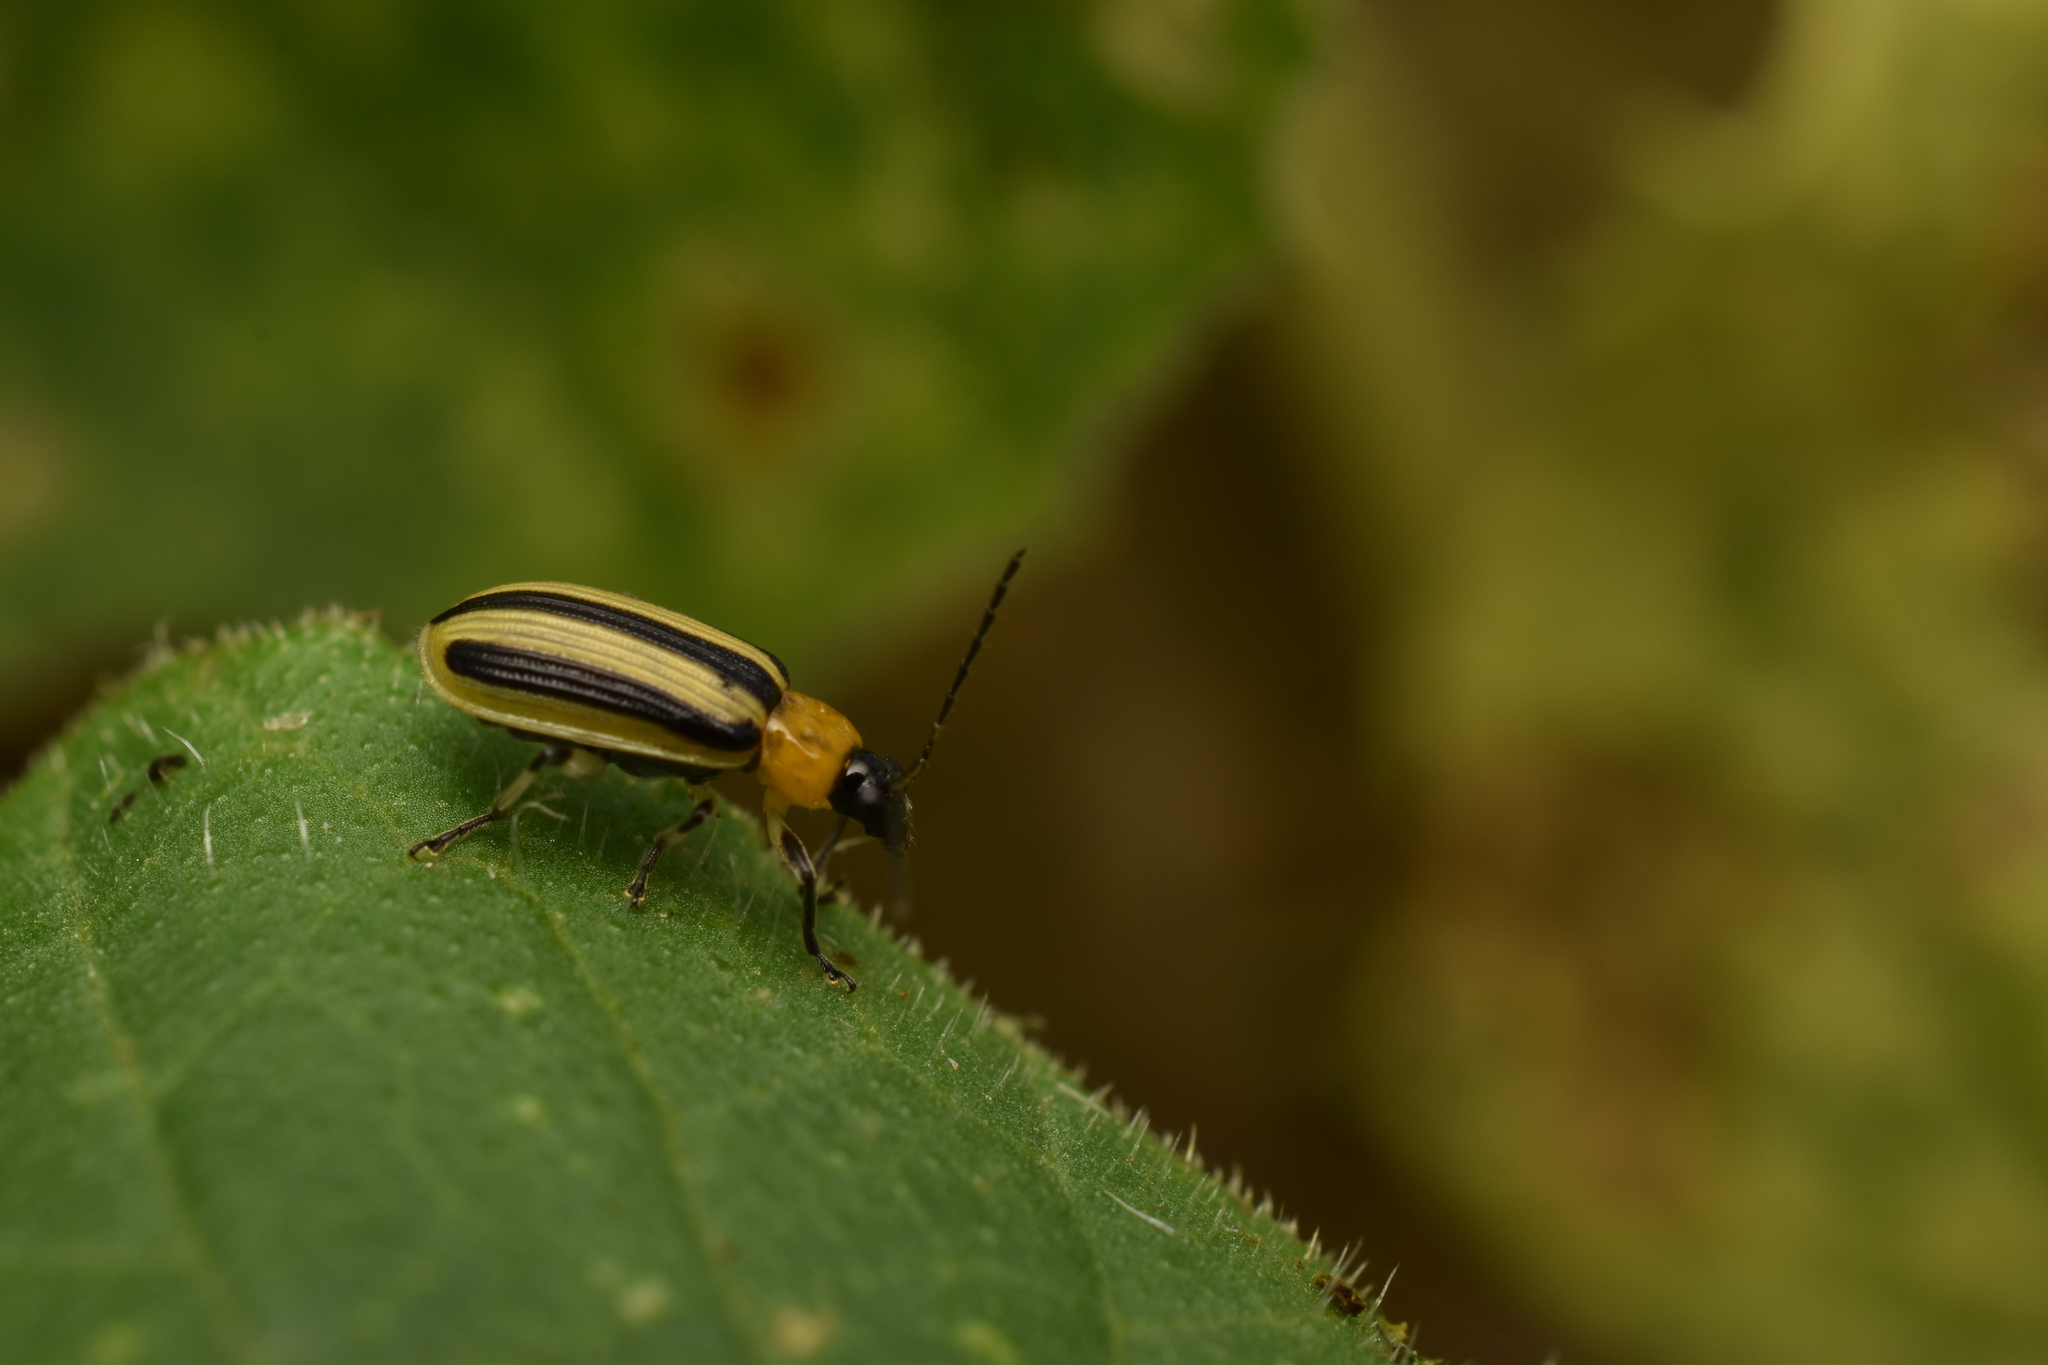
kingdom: Animalia
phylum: Arthropoda
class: Insecta
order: Coleoptera
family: Chrysomelidae
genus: Acalymma
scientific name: Acalymma vittatum
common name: Striped cucumber beetle
